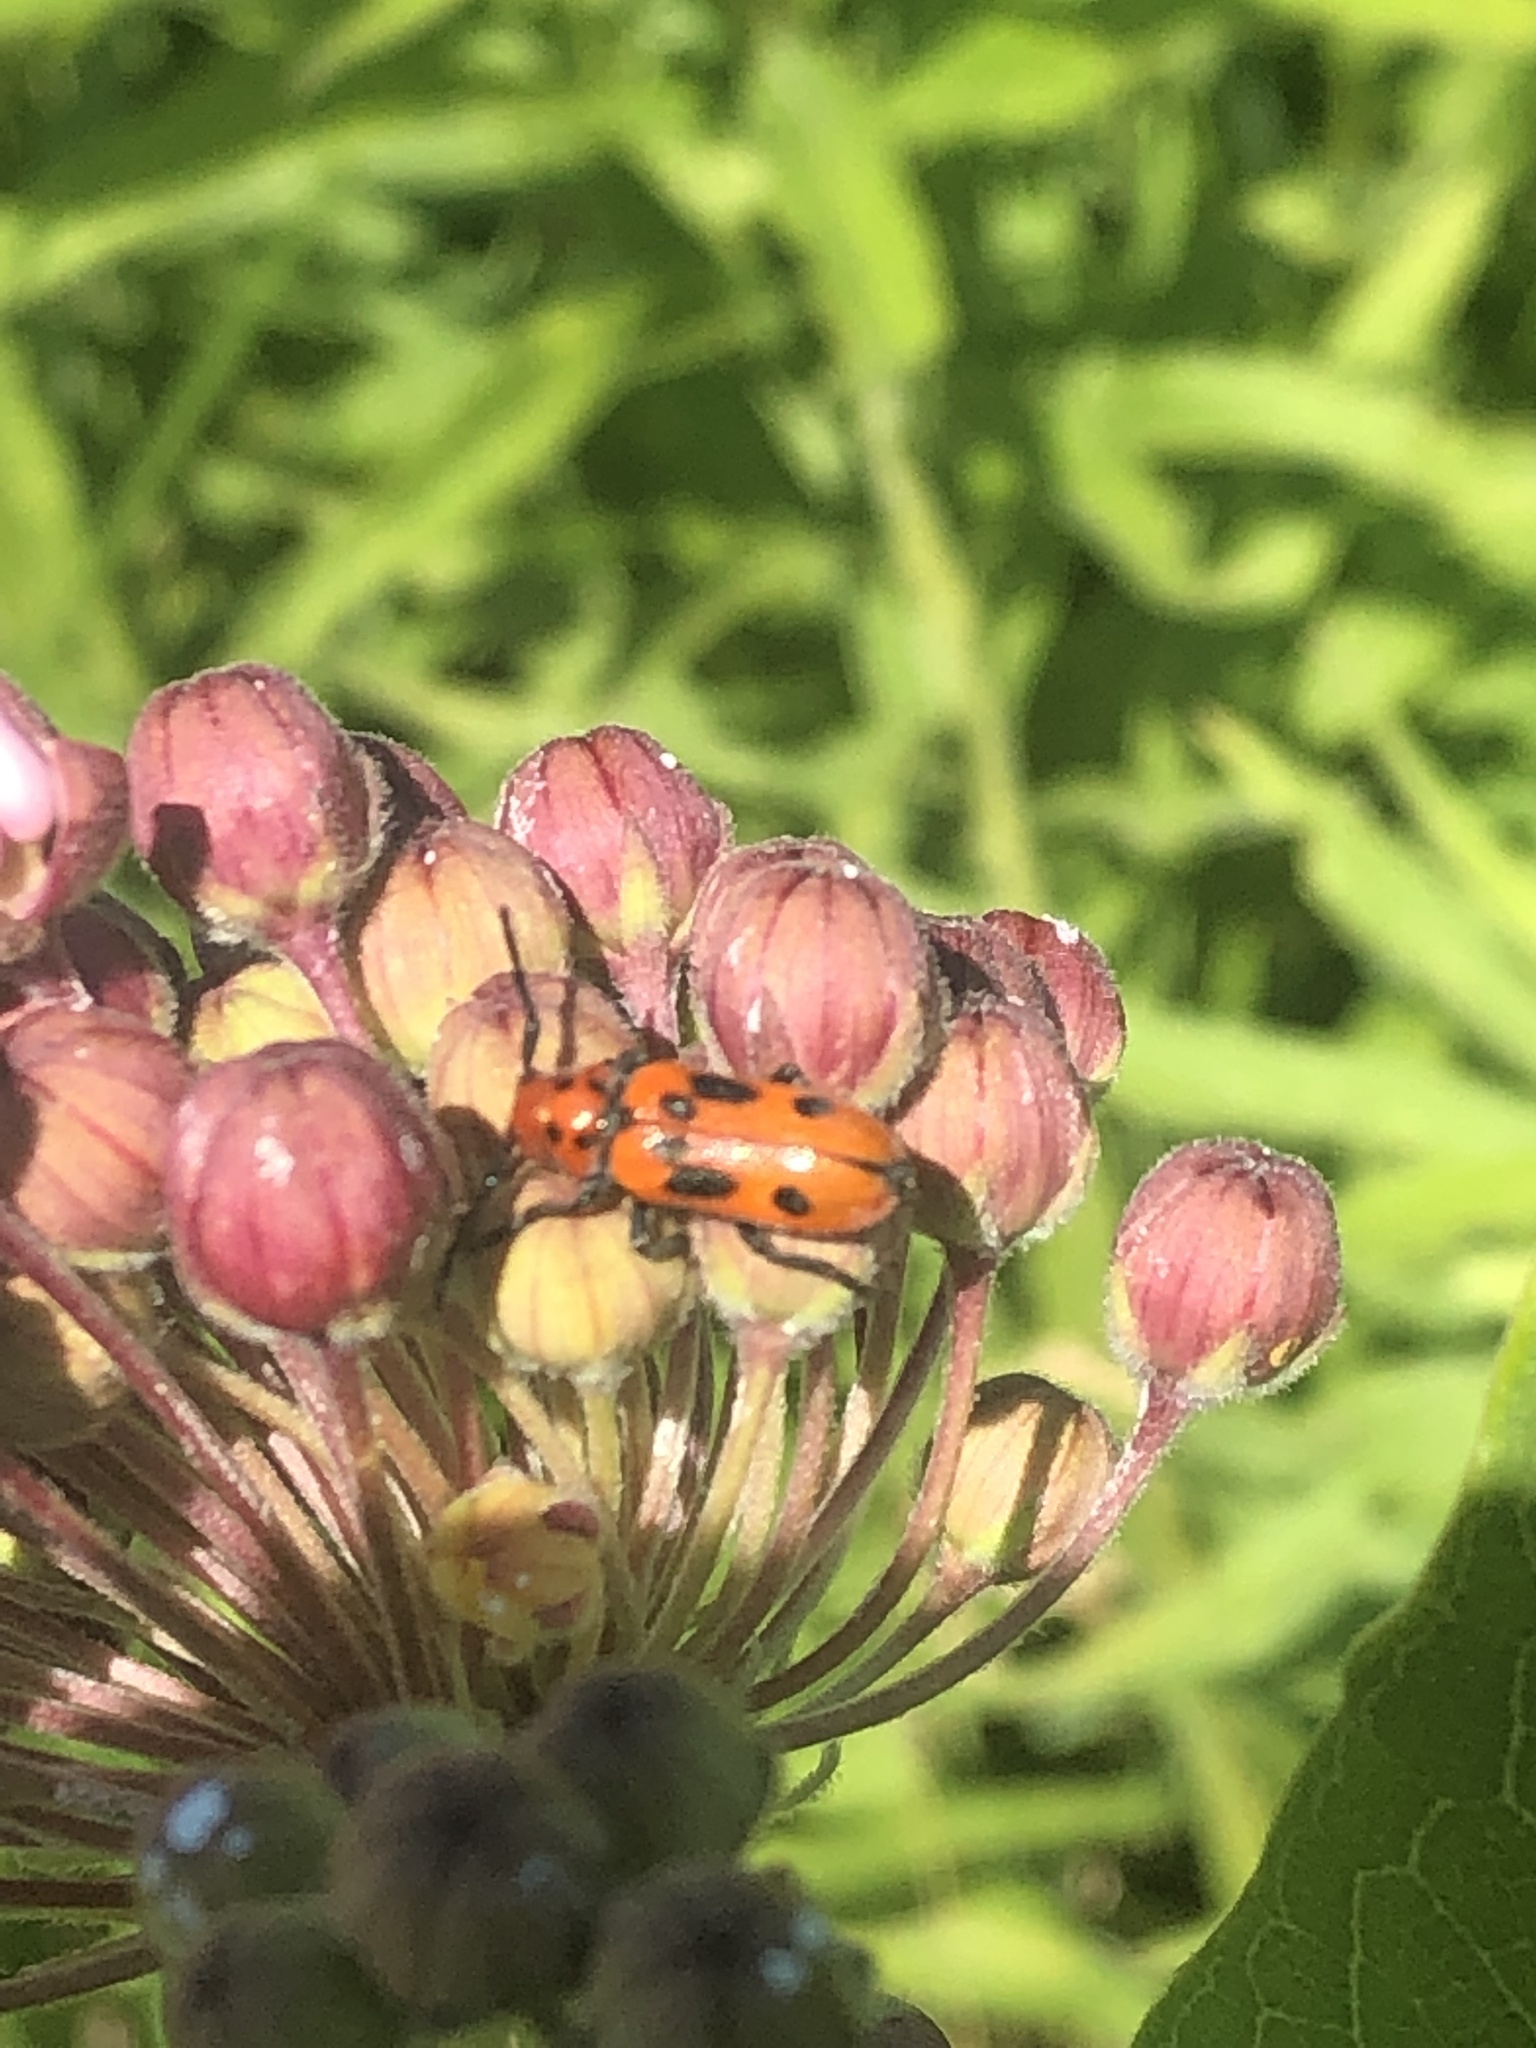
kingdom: Animalia
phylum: Arthropoda
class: Insecta
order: Coleoptera
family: Cerambycidae
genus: Tetraopes
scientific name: Tetraopes tetrophthalmus
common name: Red milkweed beetle
